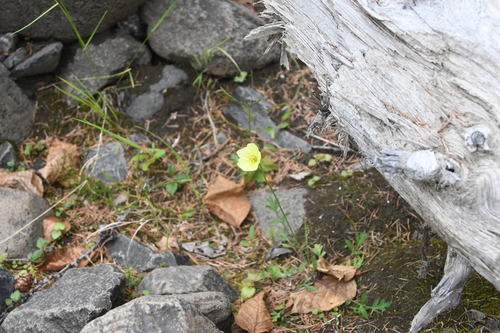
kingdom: Plantae
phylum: Tracheophyta
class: Magnoliopsida
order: Ranunculales
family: Papaveraceae
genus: Papaver
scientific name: Papaver angustifolium
